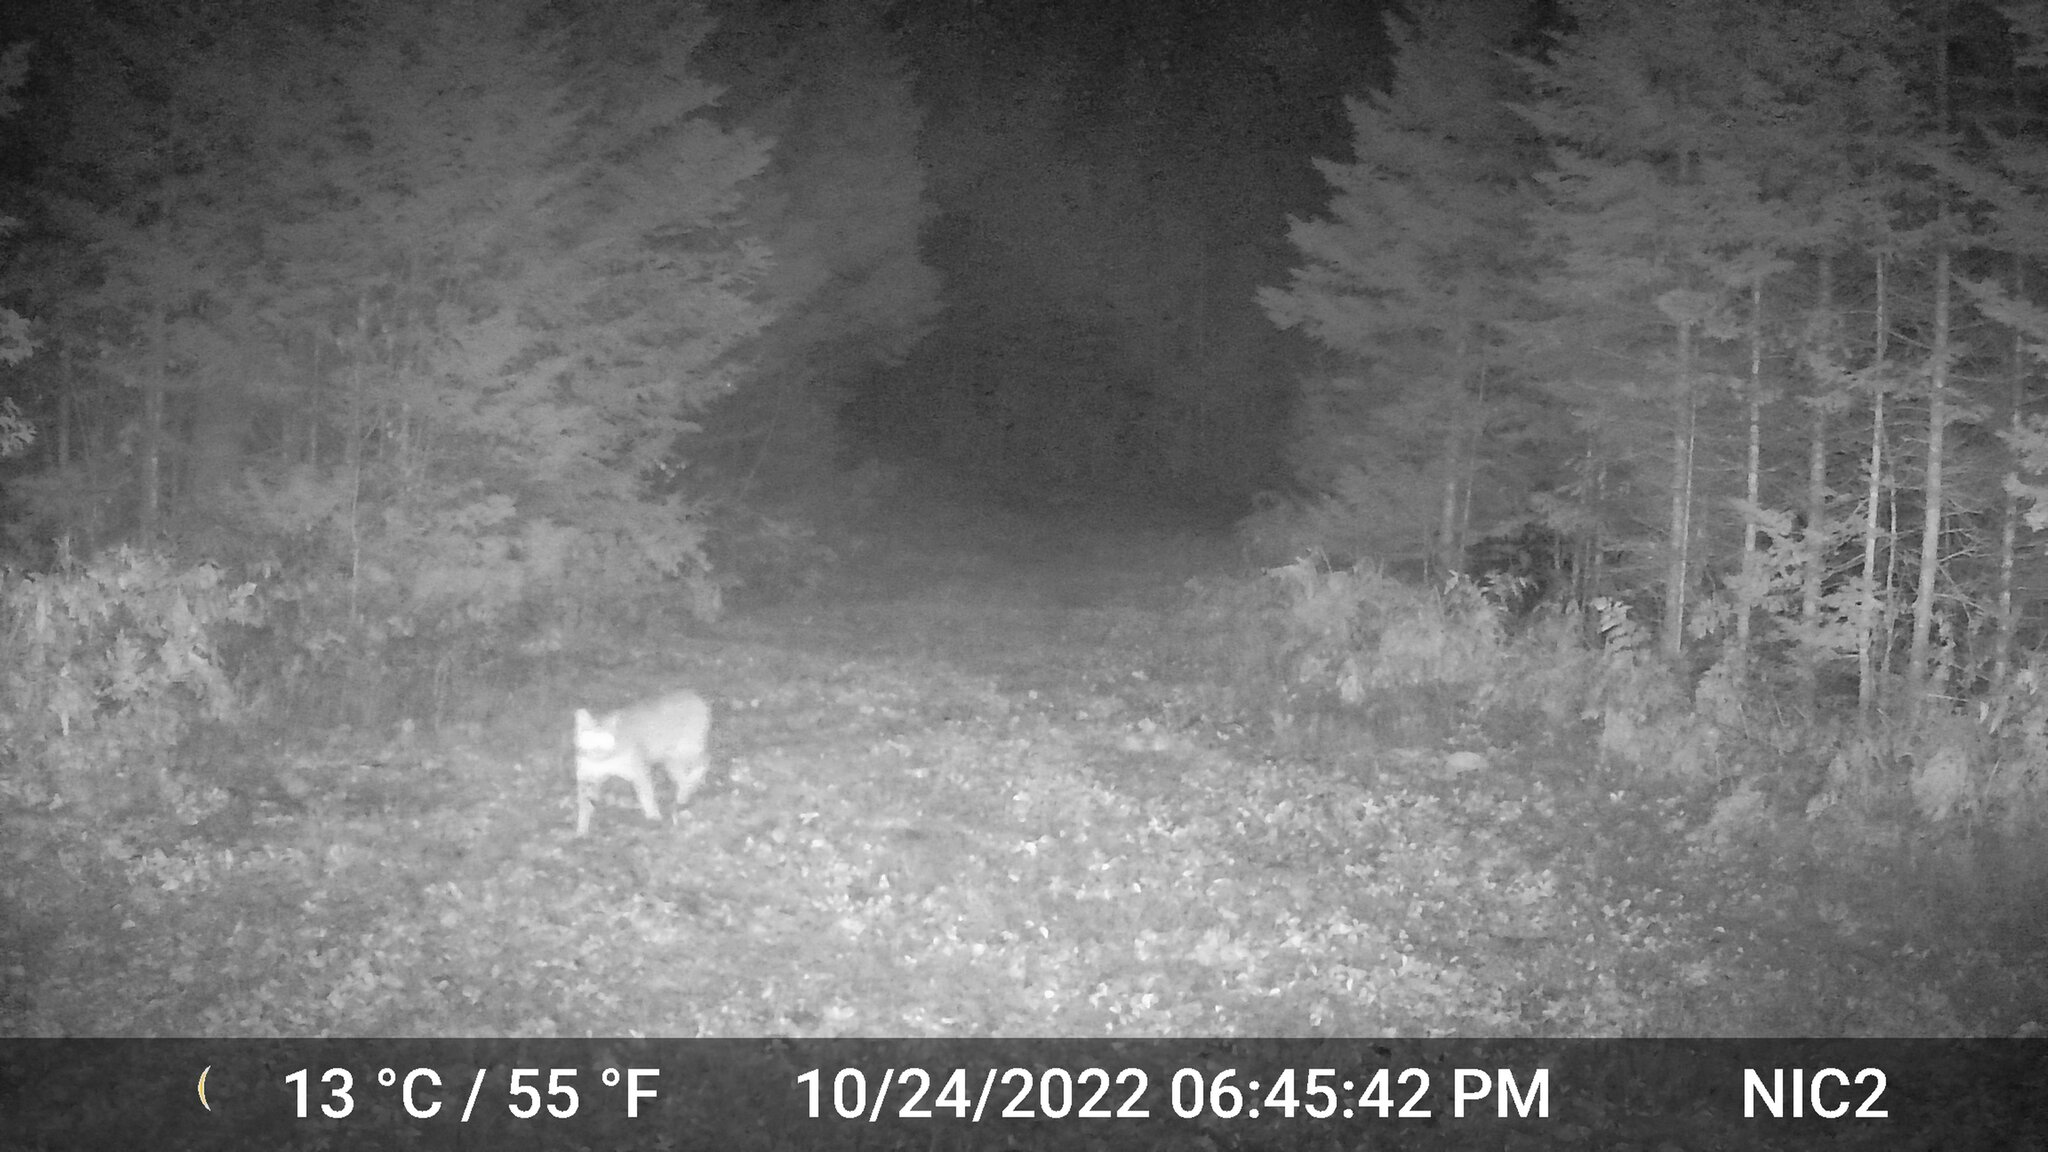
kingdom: Animalia
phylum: Chordata
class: Mammalia
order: Carnivora
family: Felidae
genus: Lynx
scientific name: Lynx rufus
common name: Bobcat
